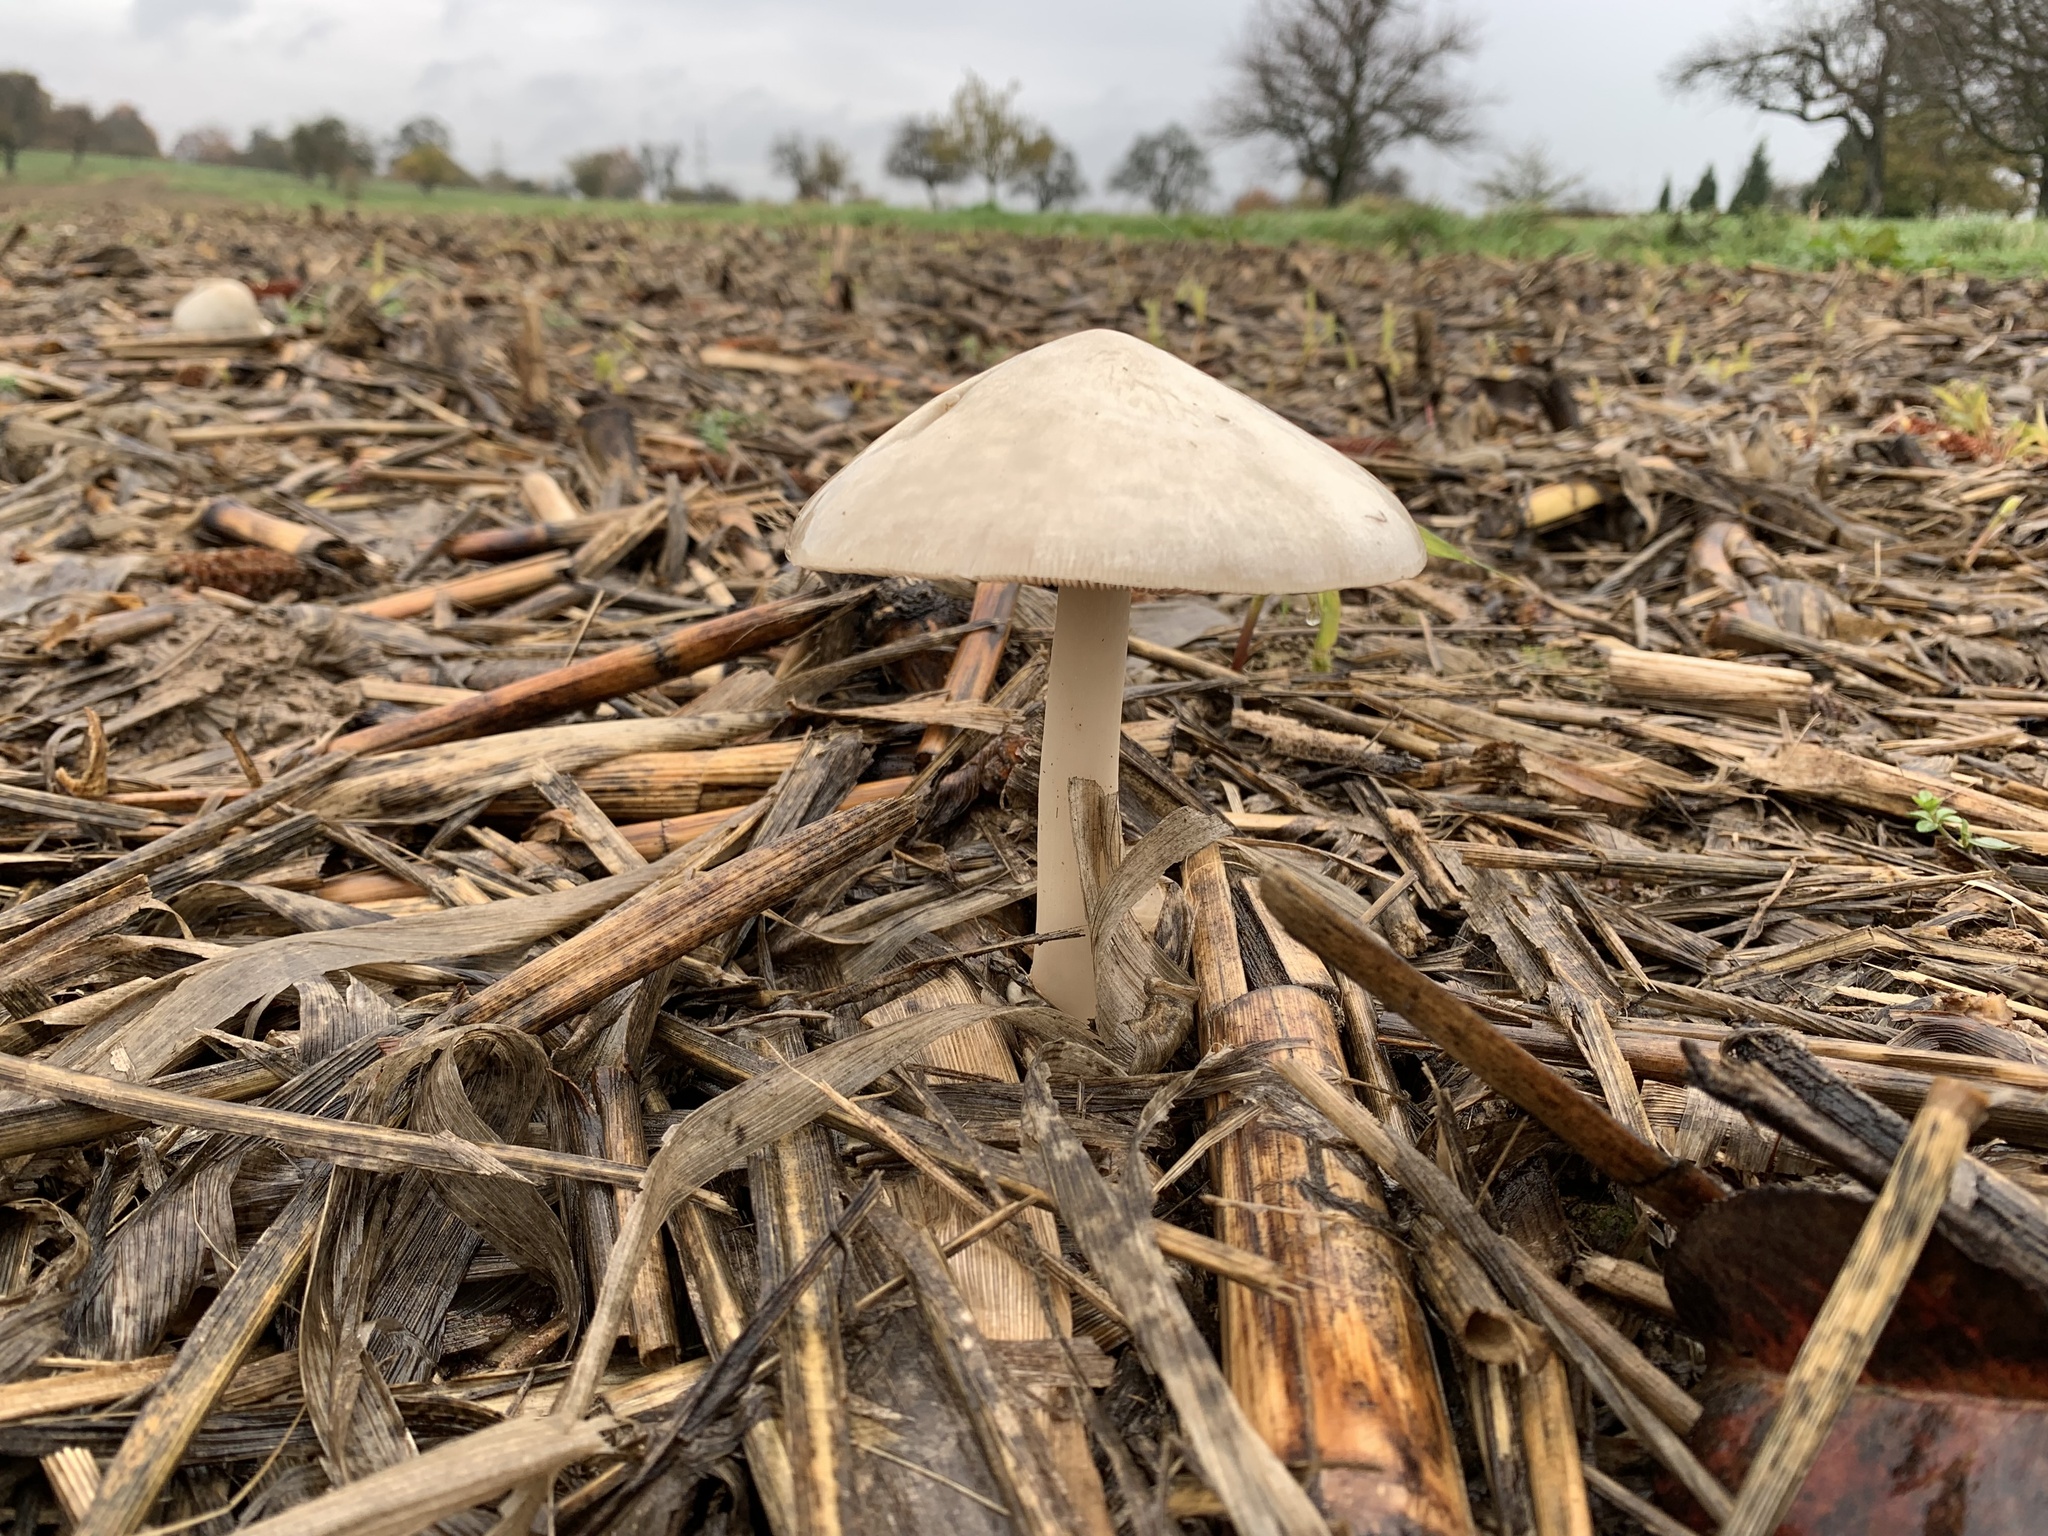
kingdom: Fungi
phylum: Basidiomycota
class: Agaricomycetes
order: Agaricales
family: Pluteaceae
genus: Volvopluteus
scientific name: Volvopluteus gloiocephalus
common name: Stubble rosegill
